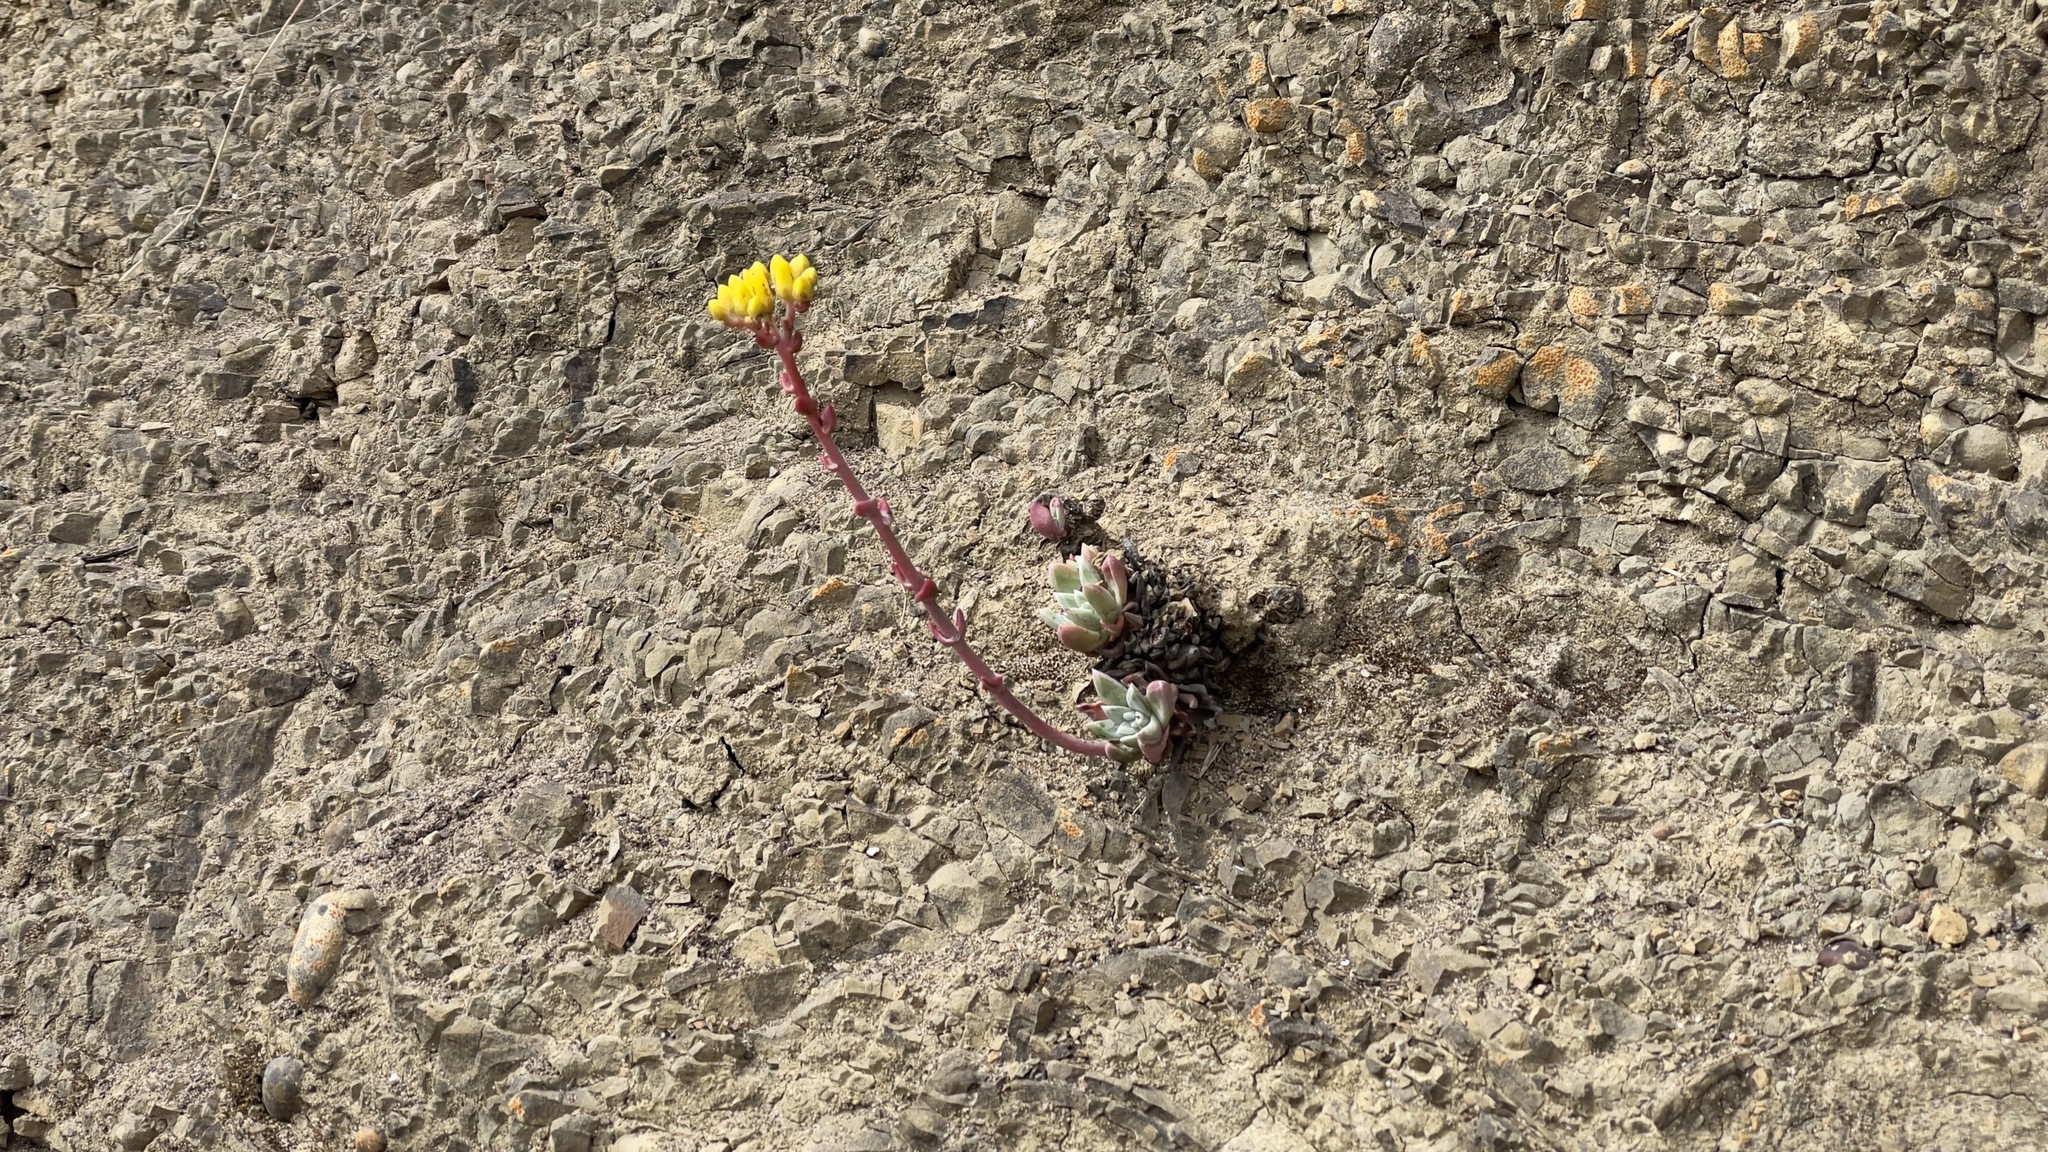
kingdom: Plantae
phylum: Tracheophyta
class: Magnoliopsida
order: Saxifragales
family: Crassulaceae
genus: Dudleya
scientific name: Dudleya caespitosa
